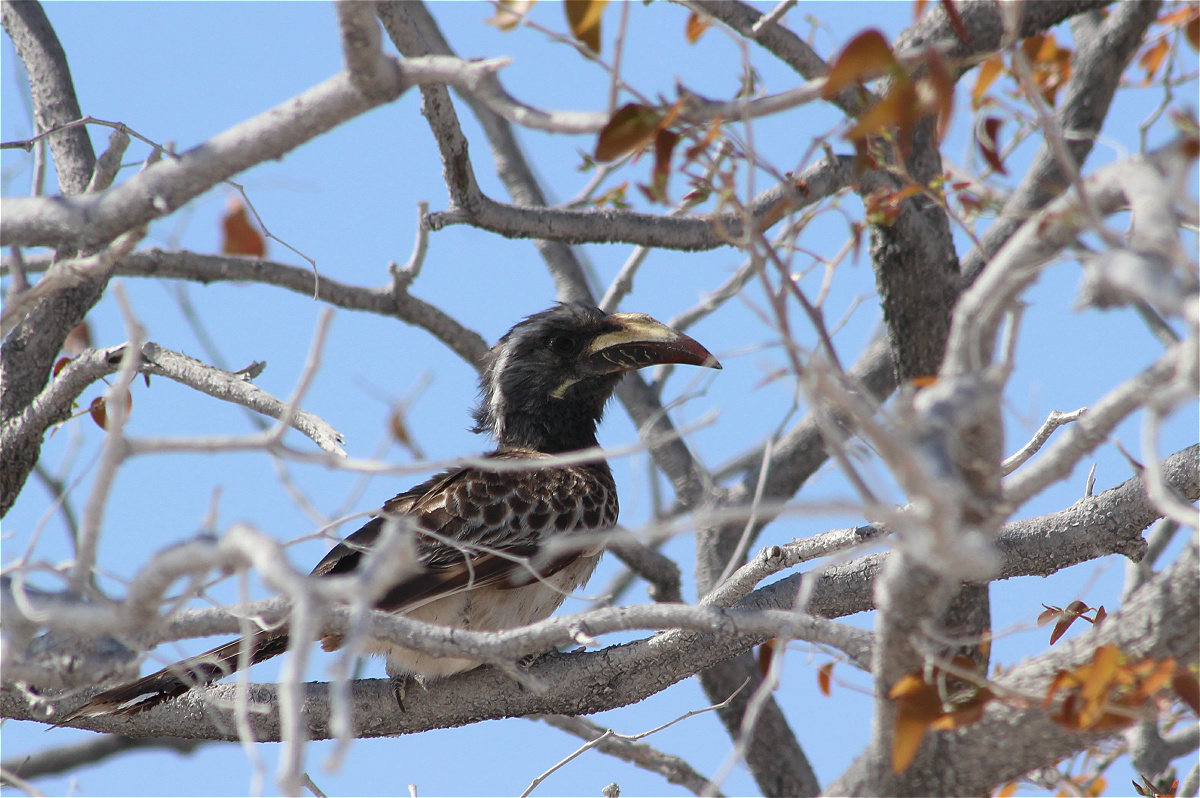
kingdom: Animalia
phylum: Chordata
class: Aves
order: Bucerotiformes
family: Bucerotidae
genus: Lophoceros
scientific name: Lophoceros nasutus
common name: African grey hornbill
